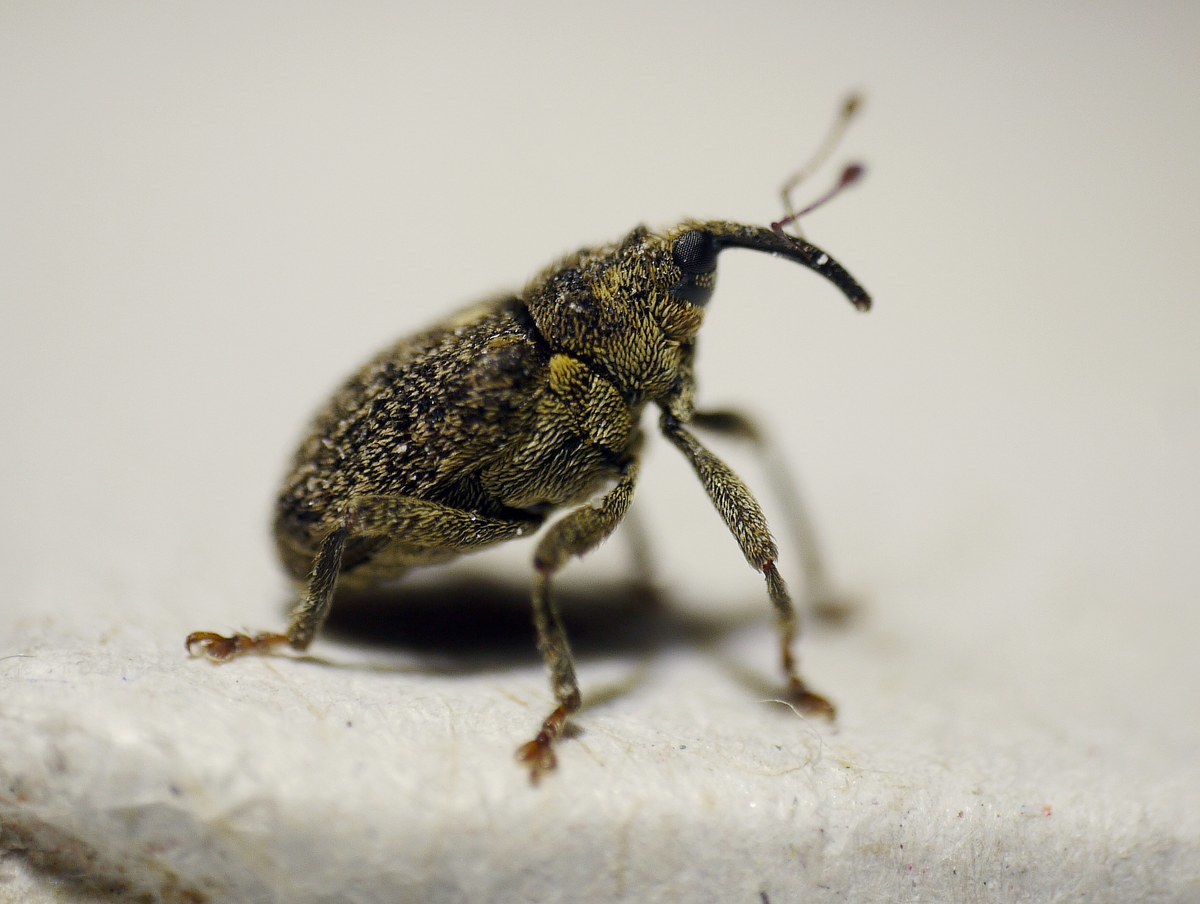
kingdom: Animalia
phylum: Arthropoda
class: Insecta
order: Coleoptera
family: Curculionidae
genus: Ceutorhynchus
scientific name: Ceutorhynchus pallidactylus
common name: Cabbage stem weavil
